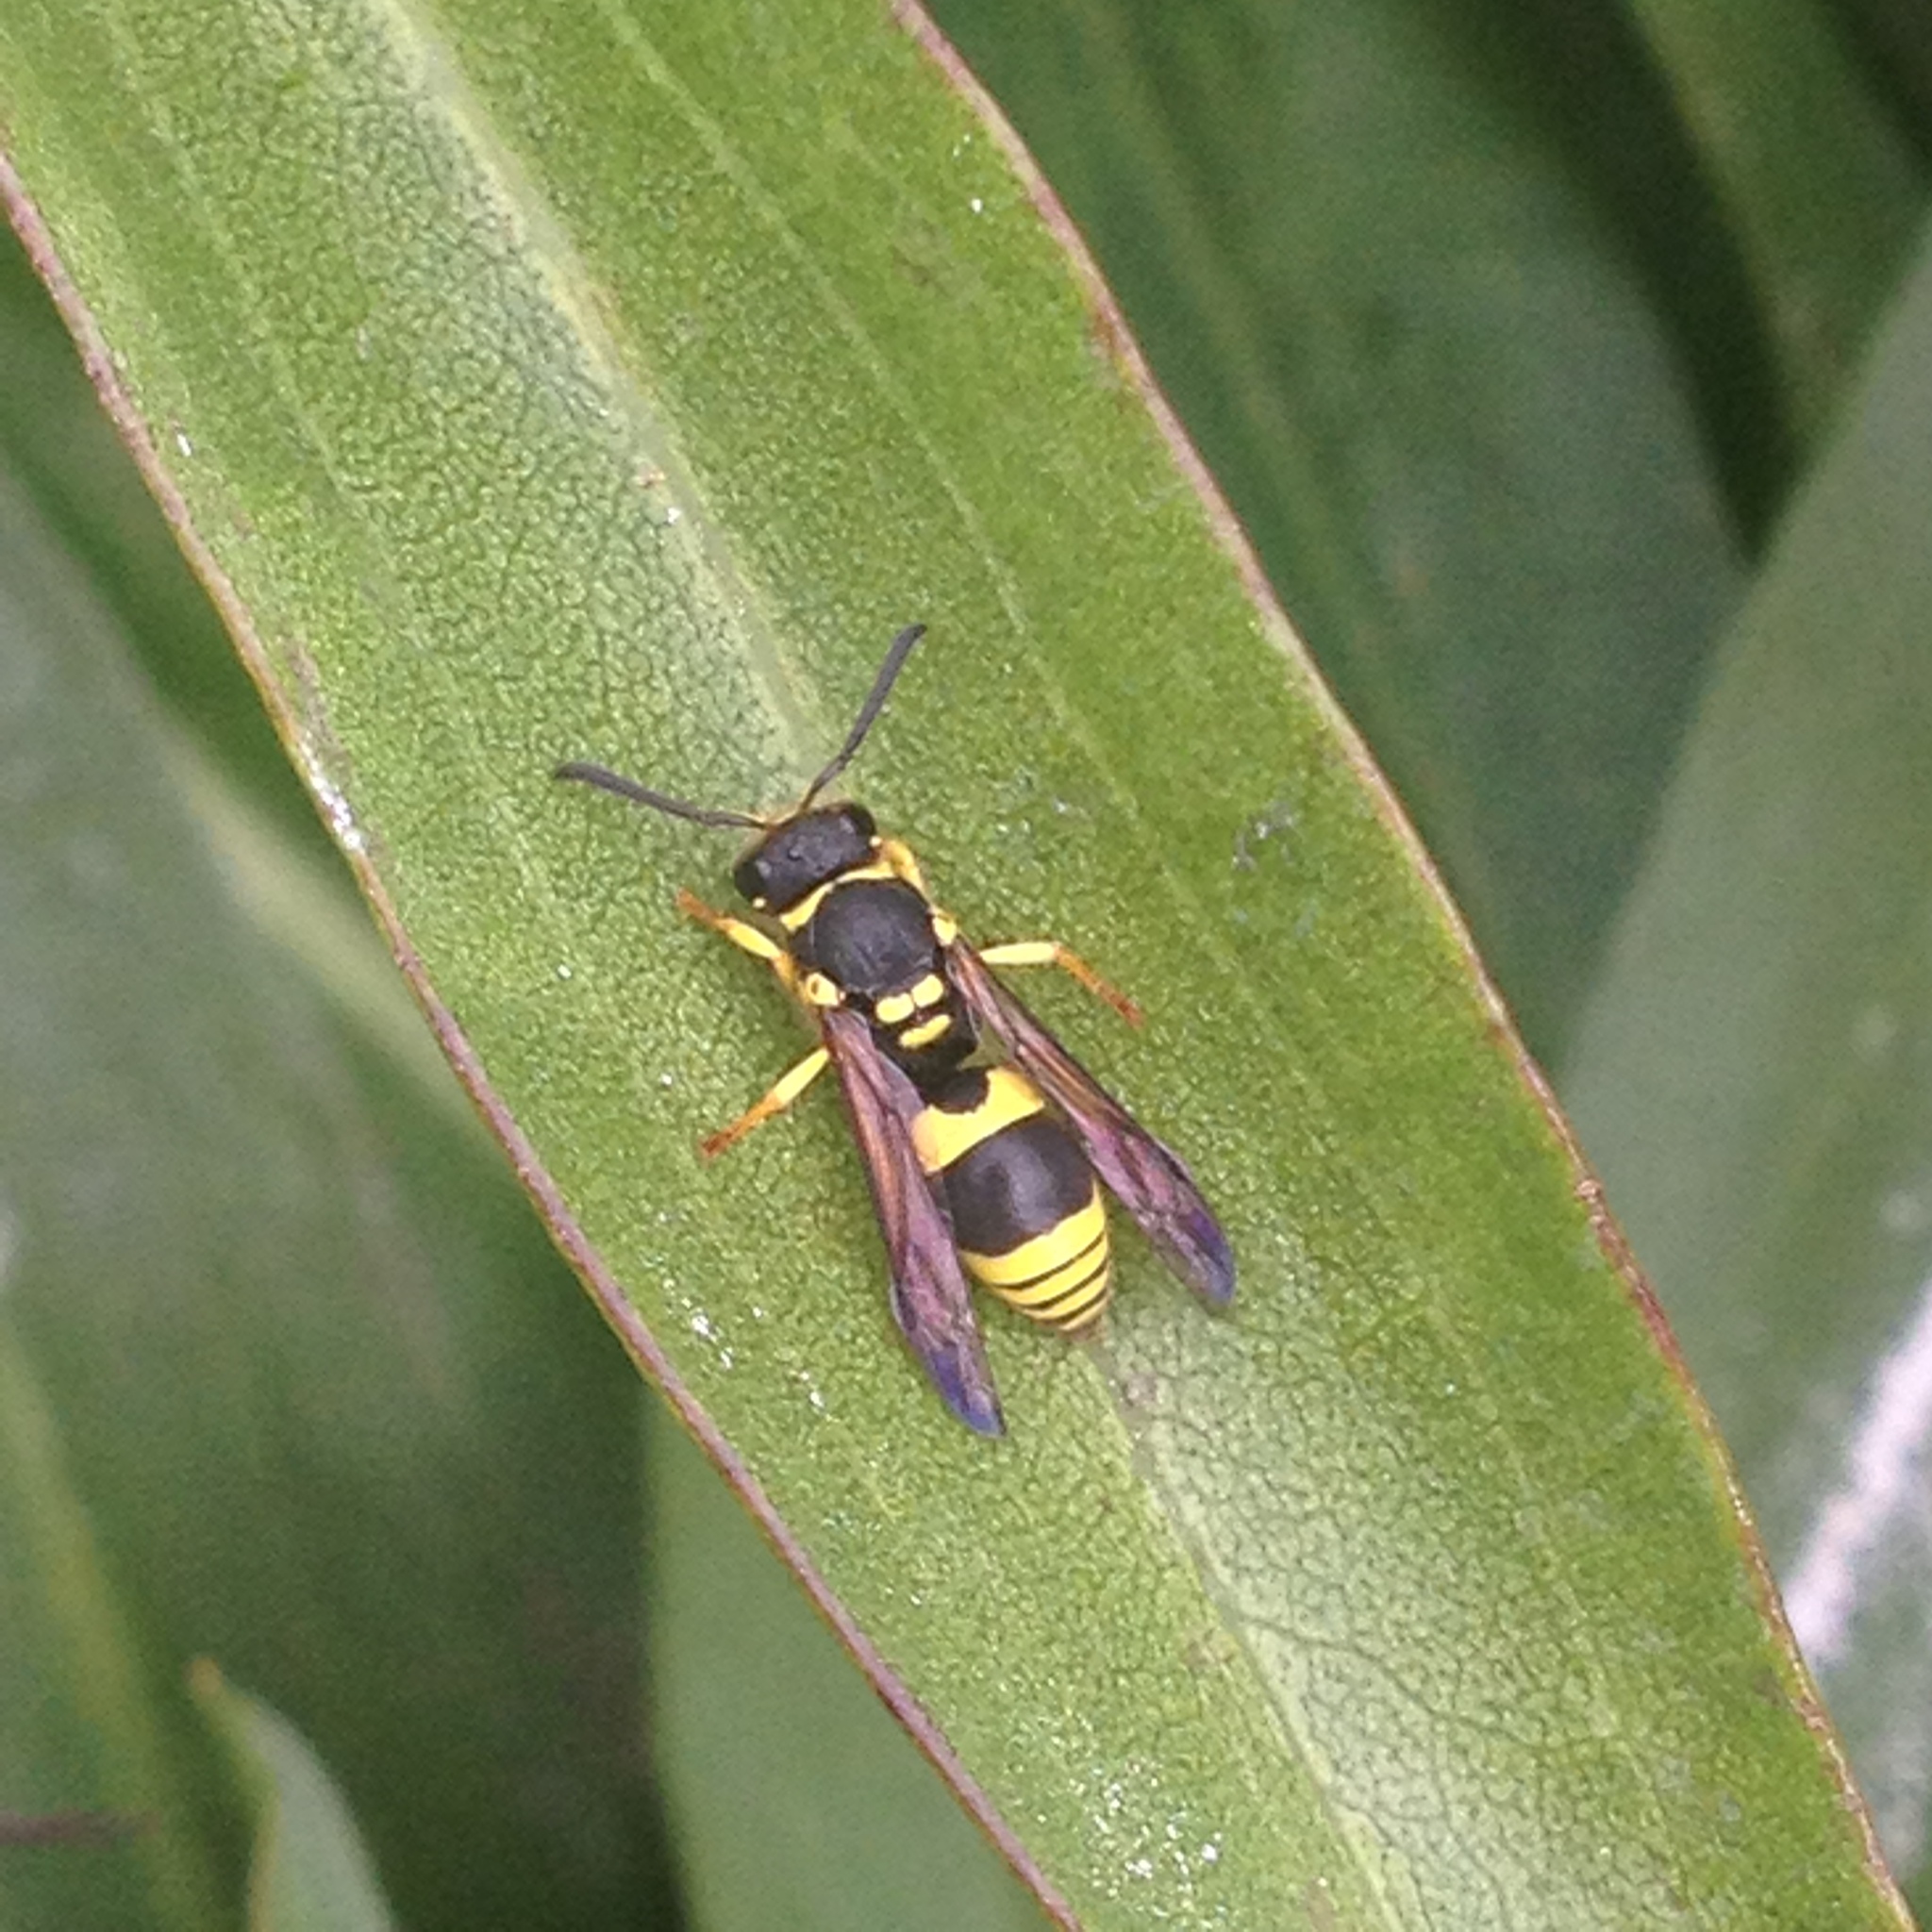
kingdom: Animalia
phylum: Arthropoda
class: Insecta
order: Hymenoptera
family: Vespidae
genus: Ancistrocerus
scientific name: Ancistrocerus gazella
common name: European tube wasp
